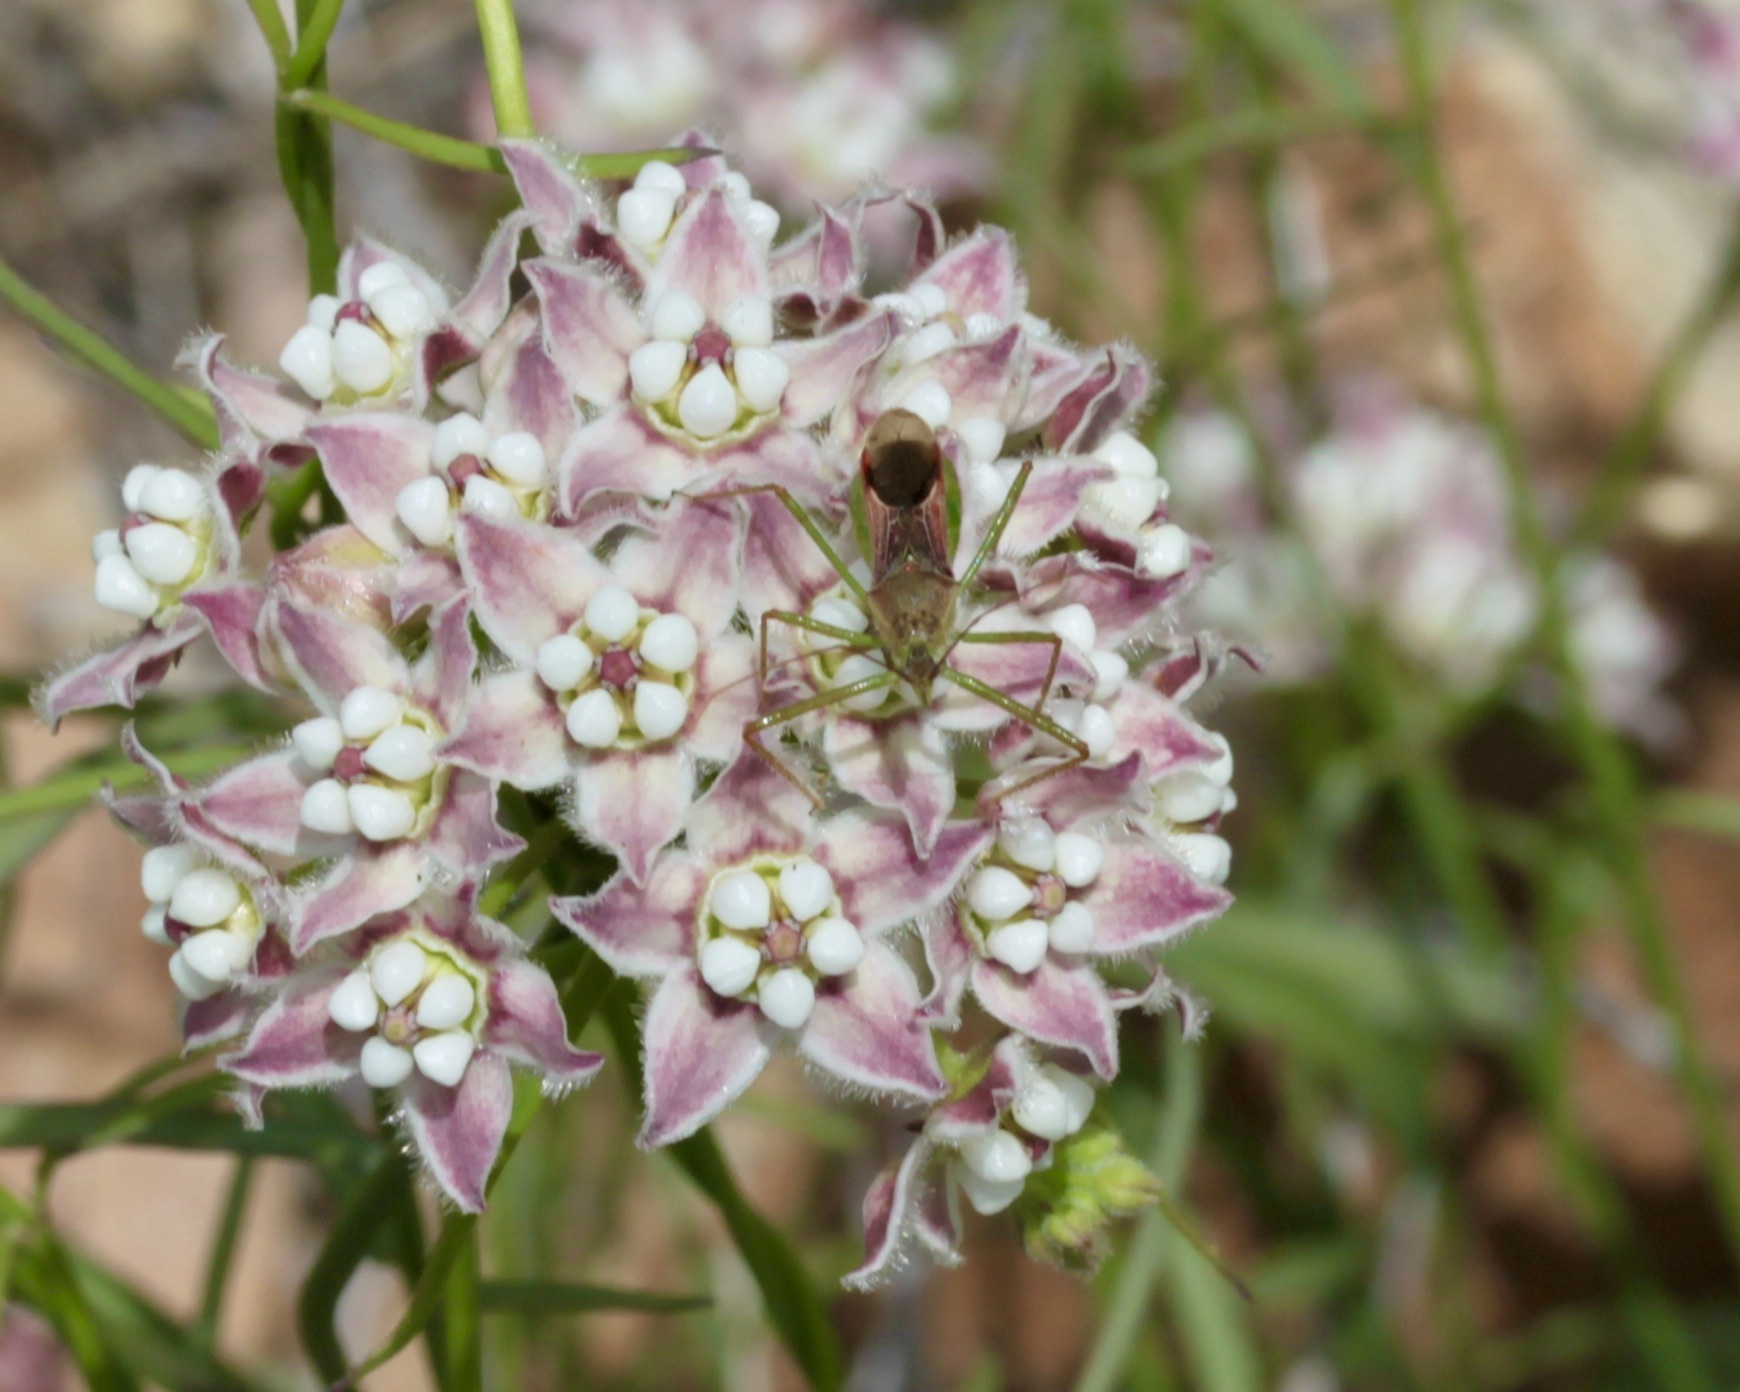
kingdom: Animalia
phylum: Arthropoda
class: Insecta
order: Hemiptera
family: Reduviidae
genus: Zelus
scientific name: Zelus renardii
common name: Assassin bug
